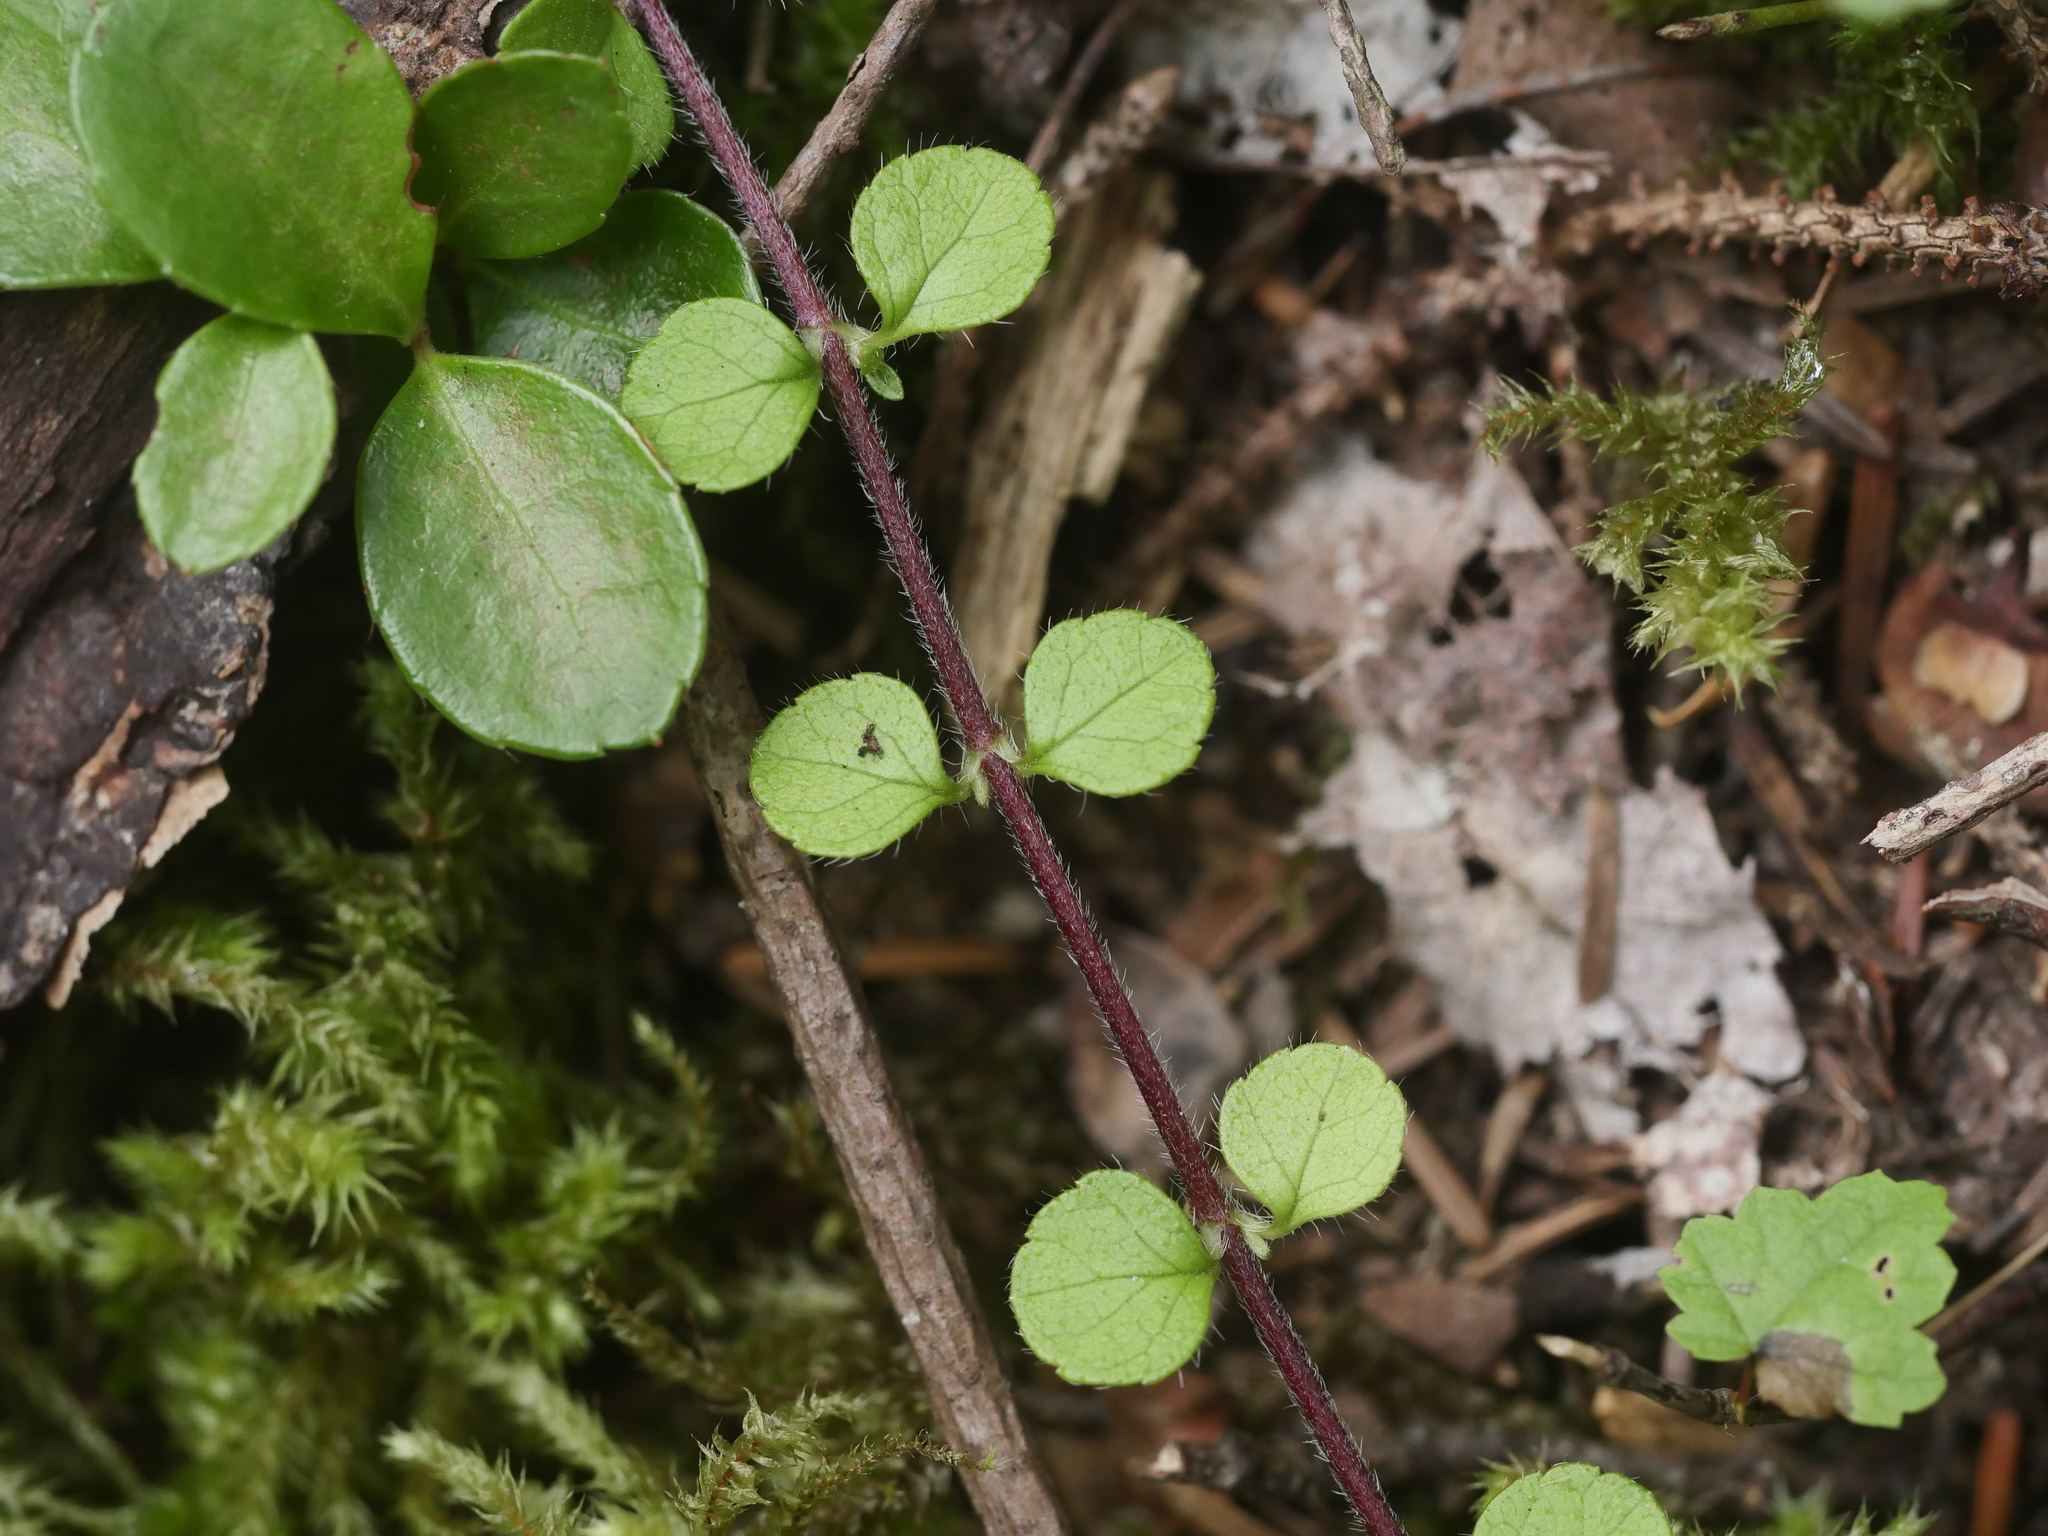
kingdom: Plantae
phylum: Tracheophyta
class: Magnoliopsida
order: Dipsacales
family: Caprifoliaceae
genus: Linnaea
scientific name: Linnaea borealis
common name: Twinflower
